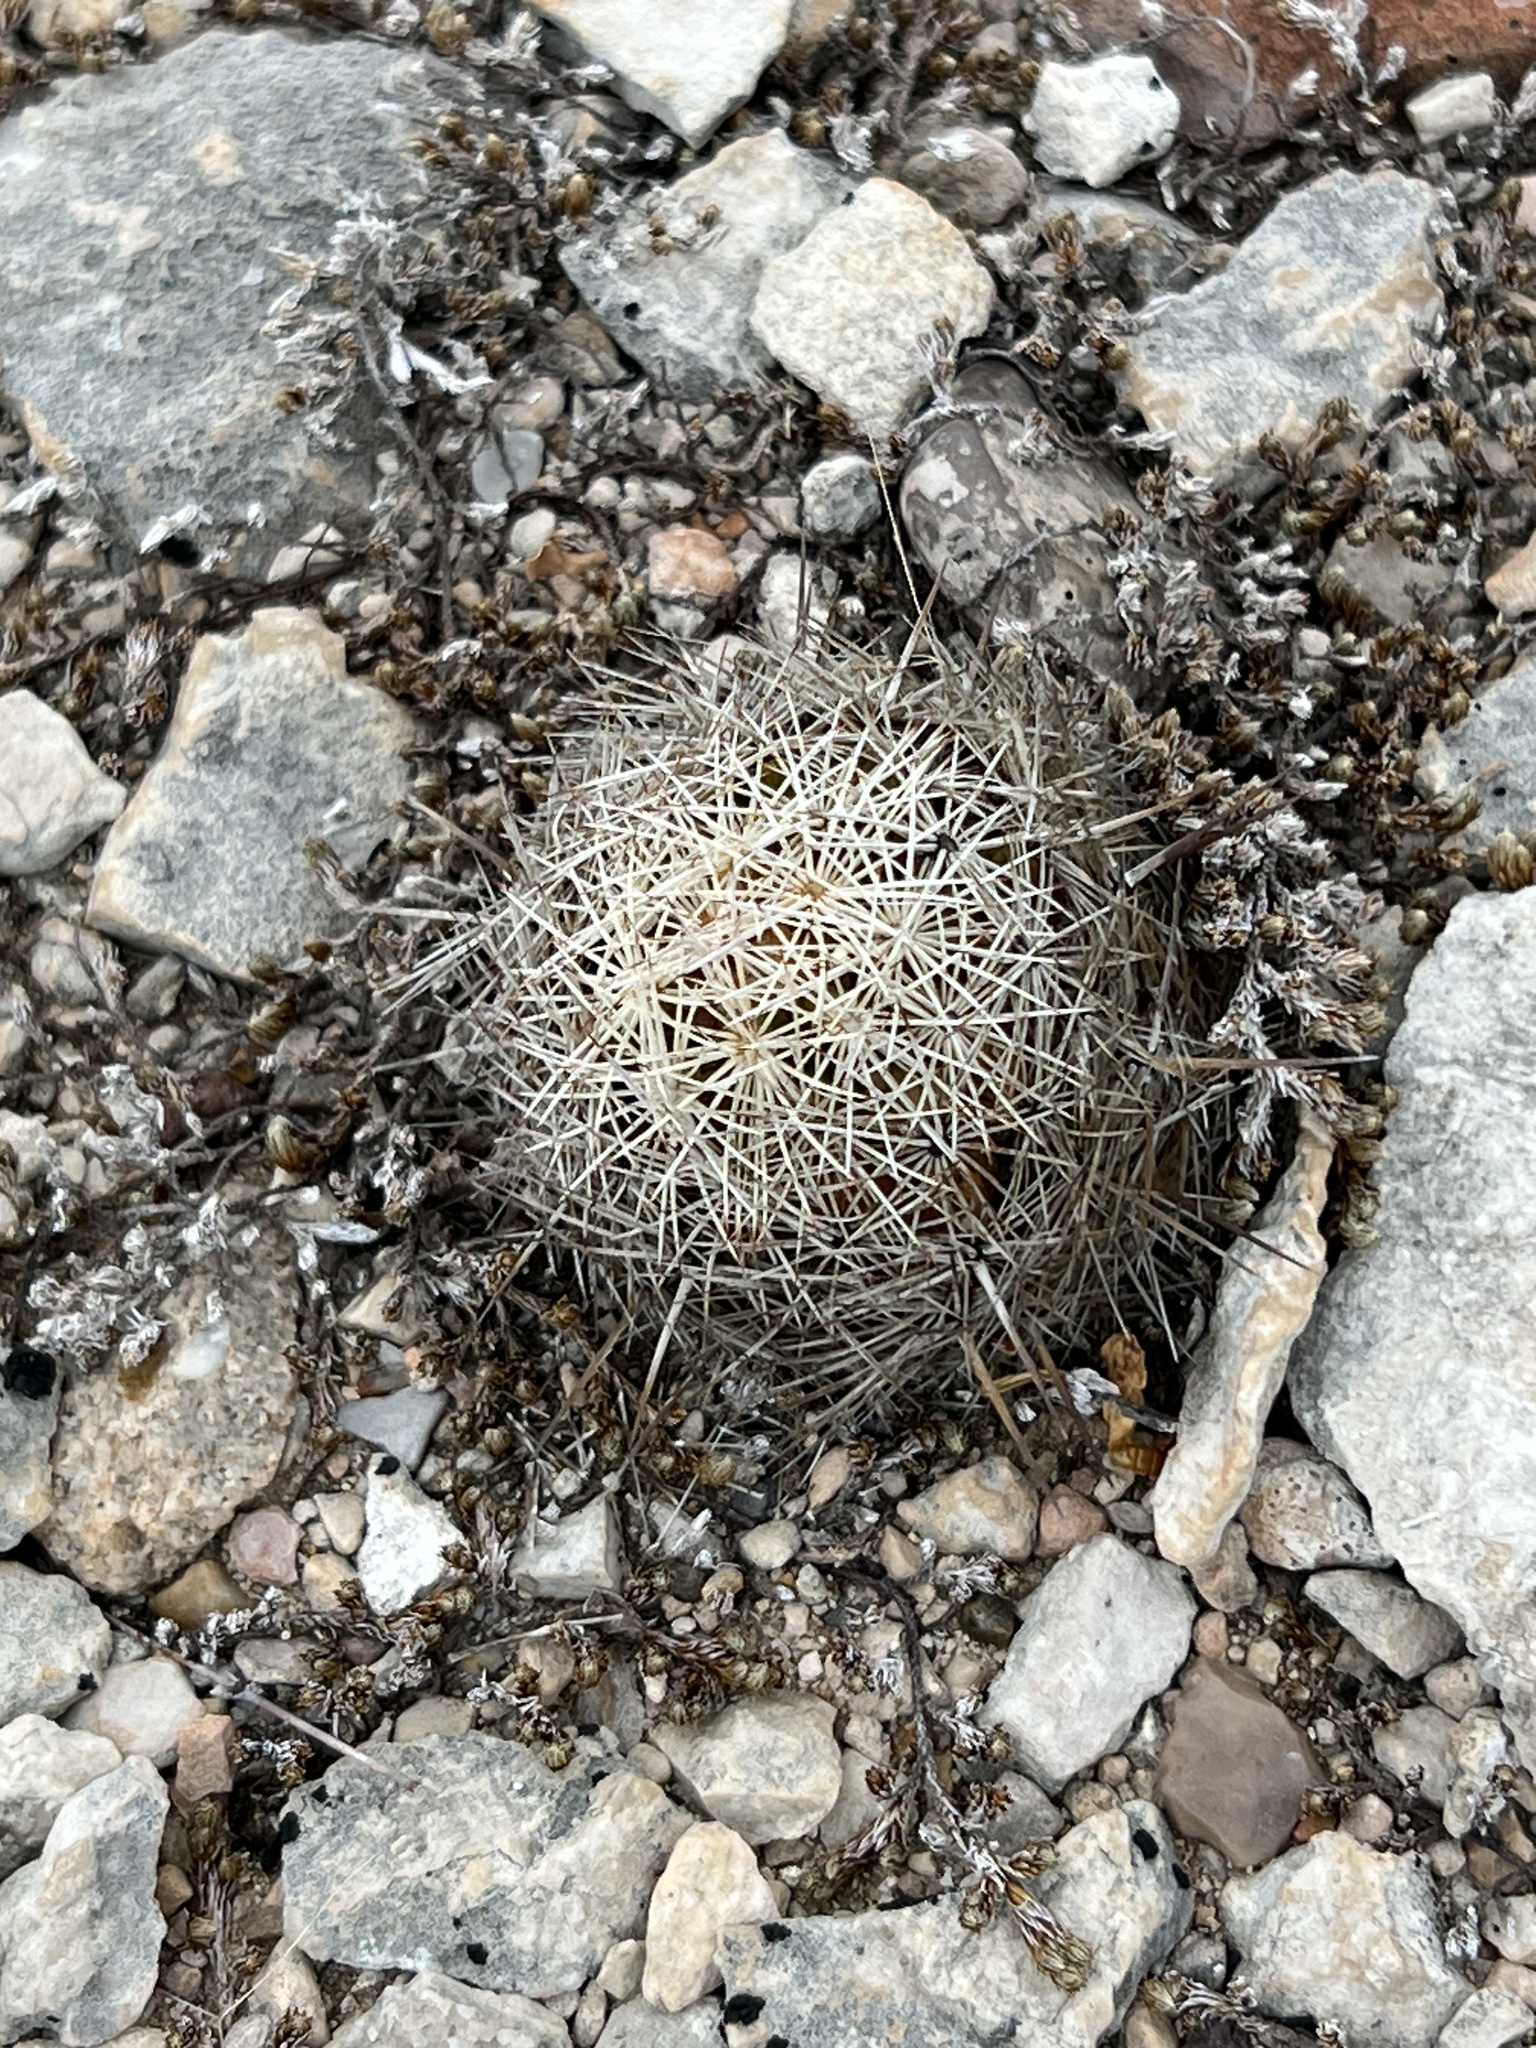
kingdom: Plantae
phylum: Tracheophyta
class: Magnoliopsida
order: Caryophyllales
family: Cactaceae
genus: Coryphantha
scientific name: Coryphantha echinus
